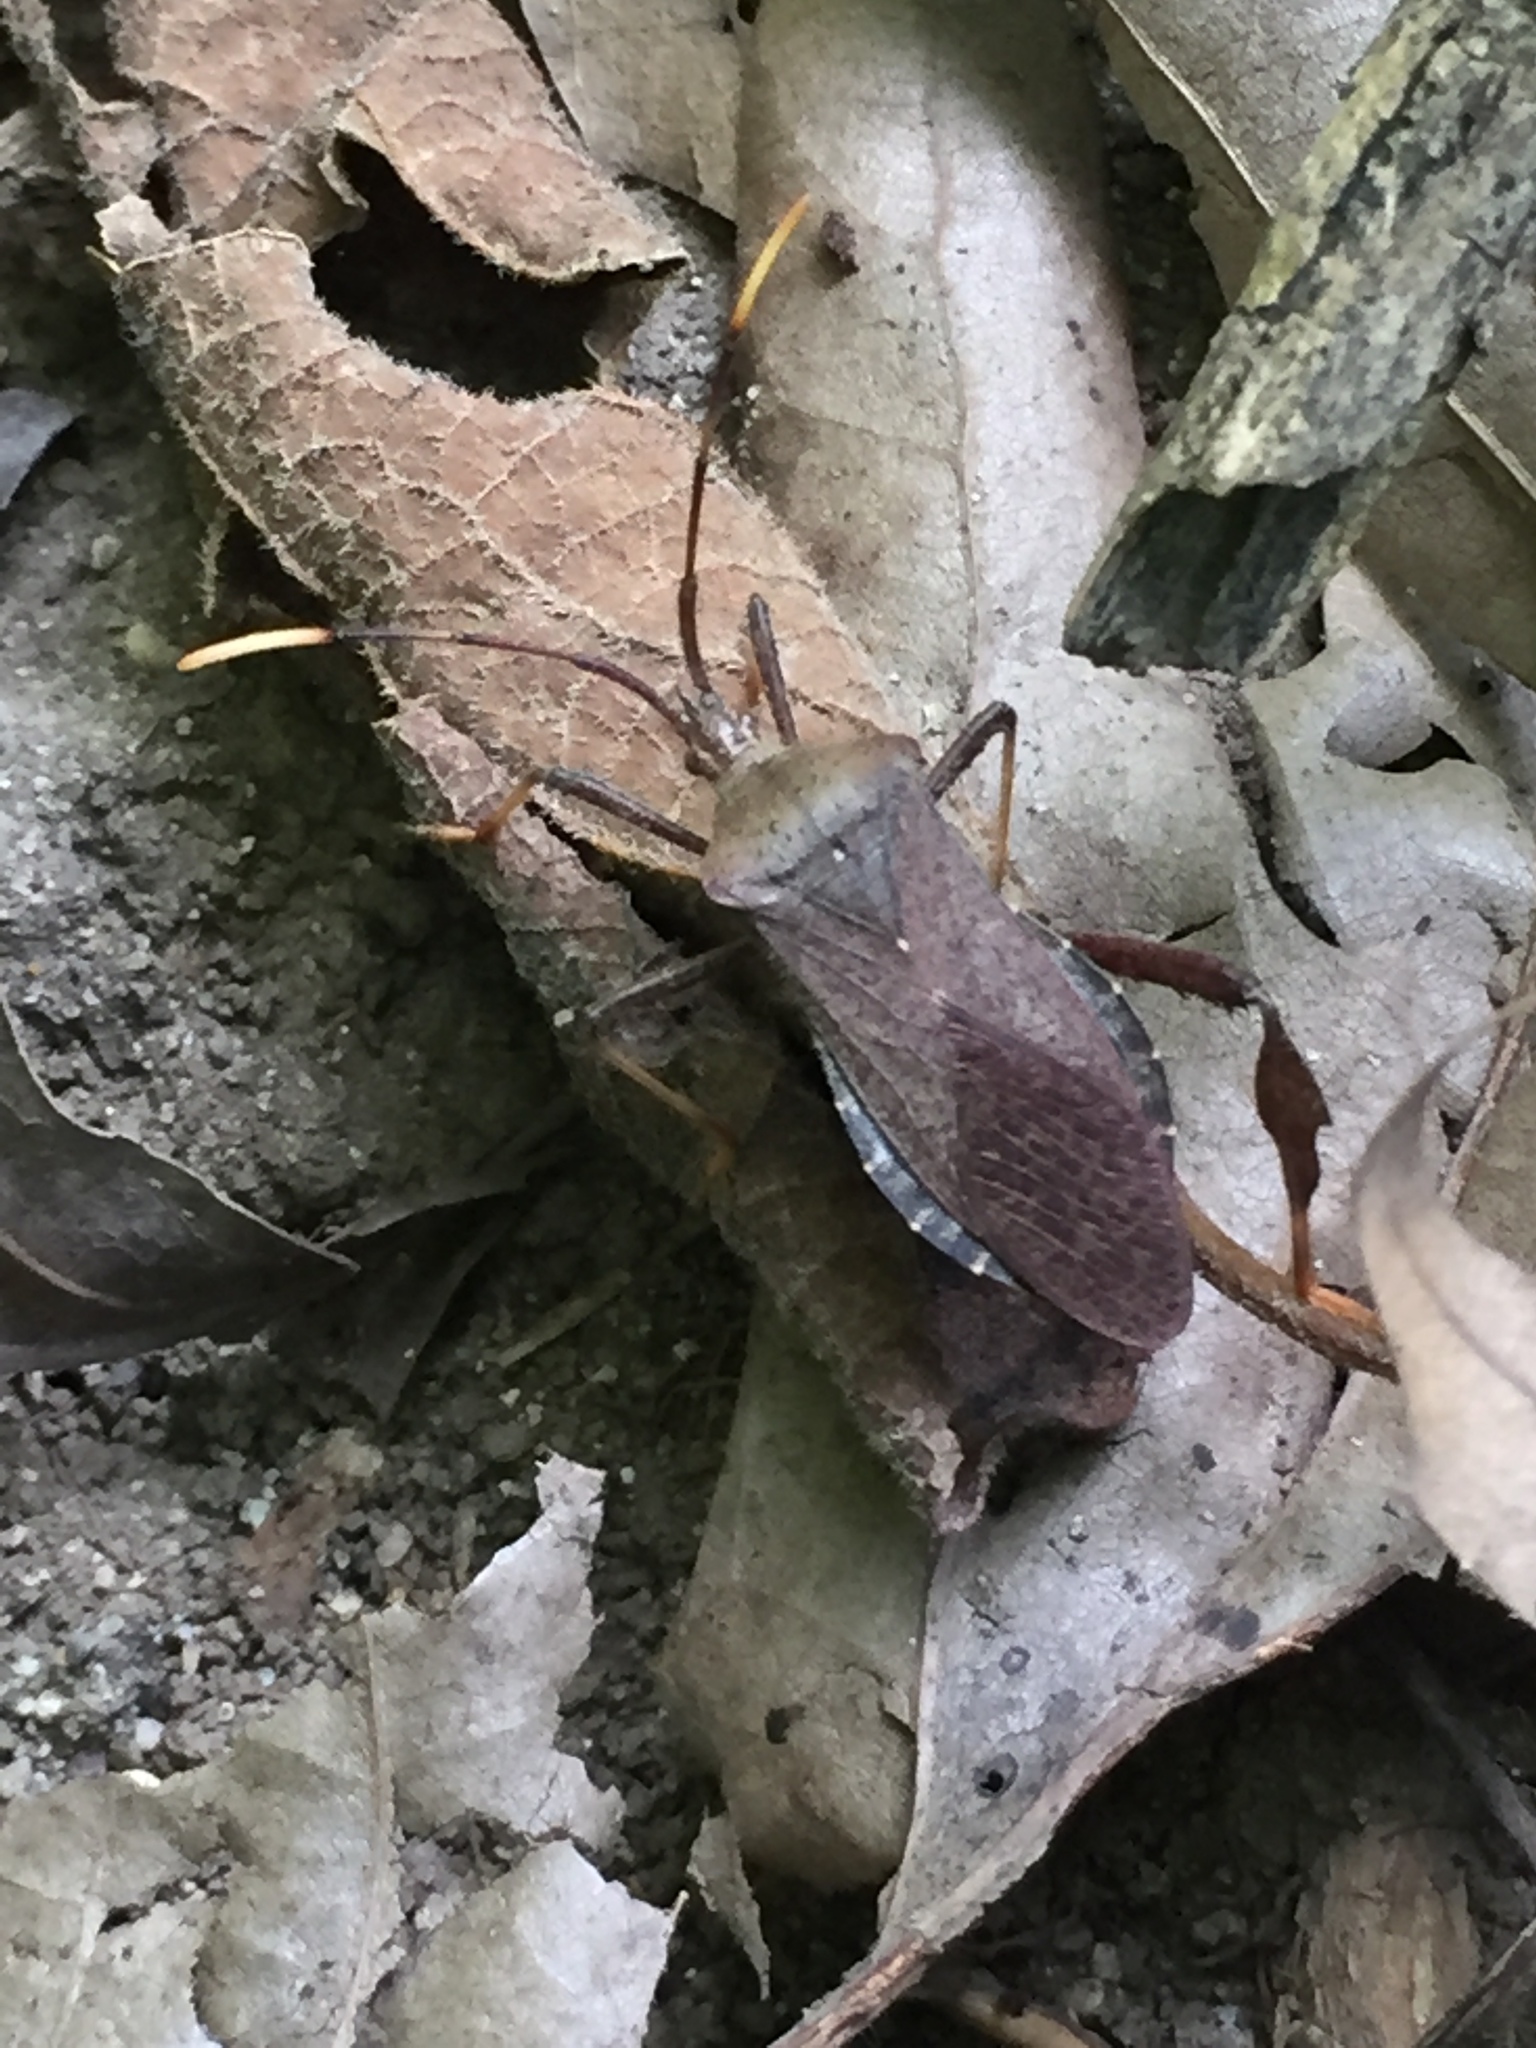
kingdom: Animalia
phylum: Arthropoda
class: Insecta
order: Hemiptera
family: Coreidae
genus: Acanthocephala
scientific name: Acanthocephala terminalis
